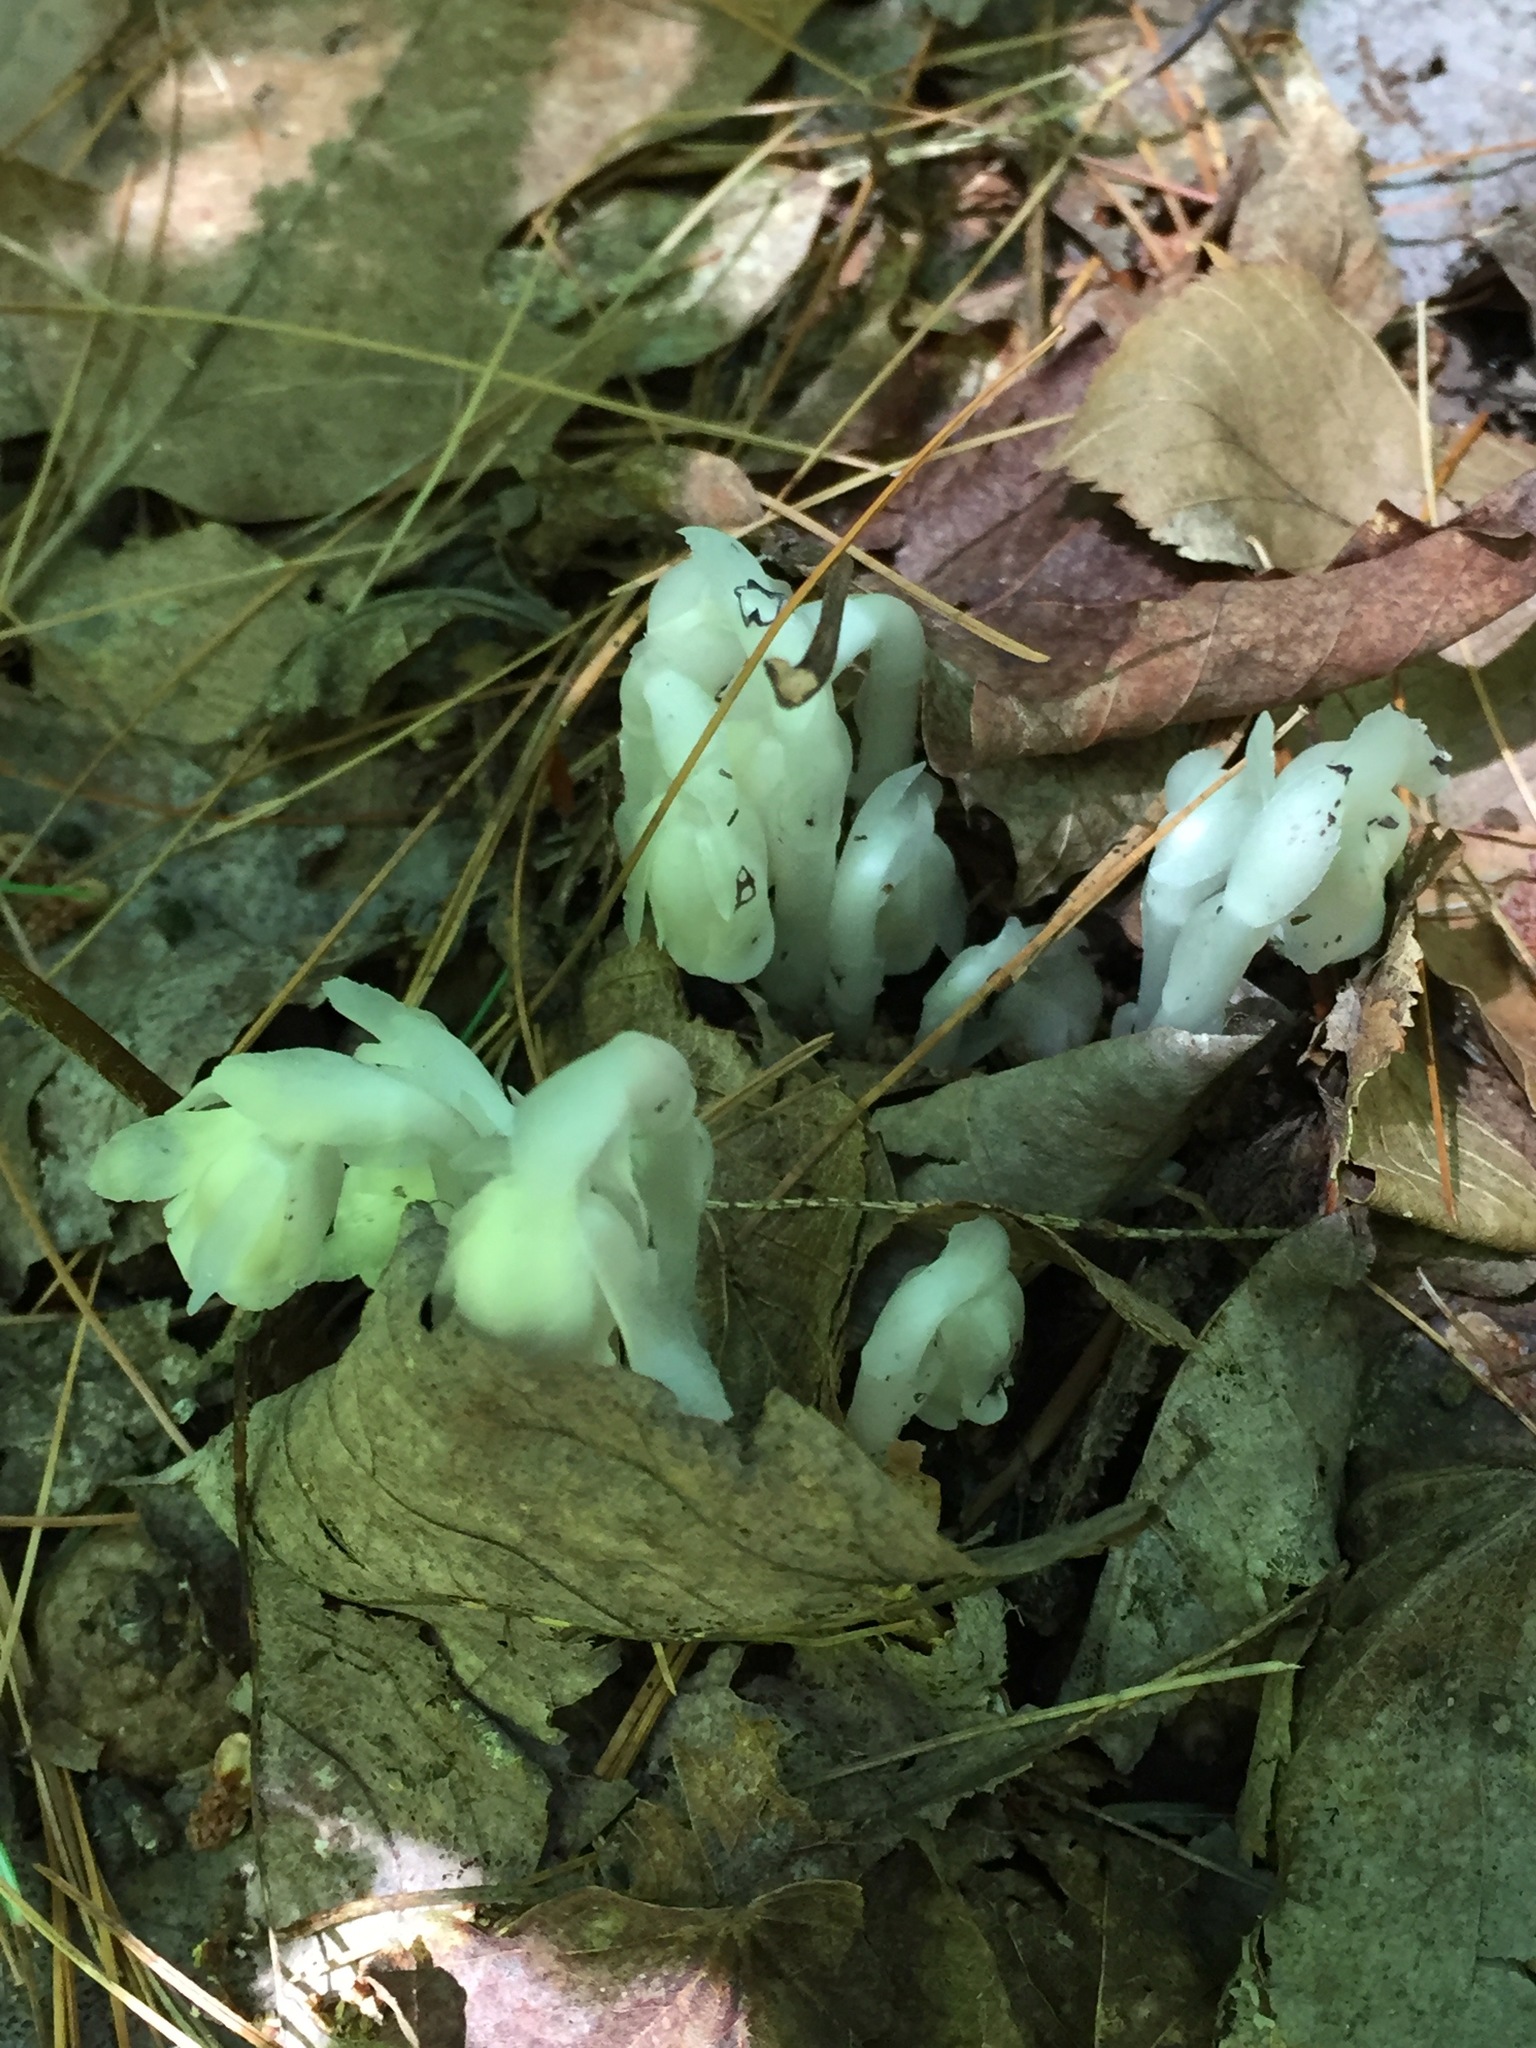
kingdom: Plantae
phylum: Tracheophyta
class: Magnoliopsida
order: Ericales
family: Ericaceae
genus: Monotropa
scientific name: Monotropa uniflora
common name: Convulsion root
